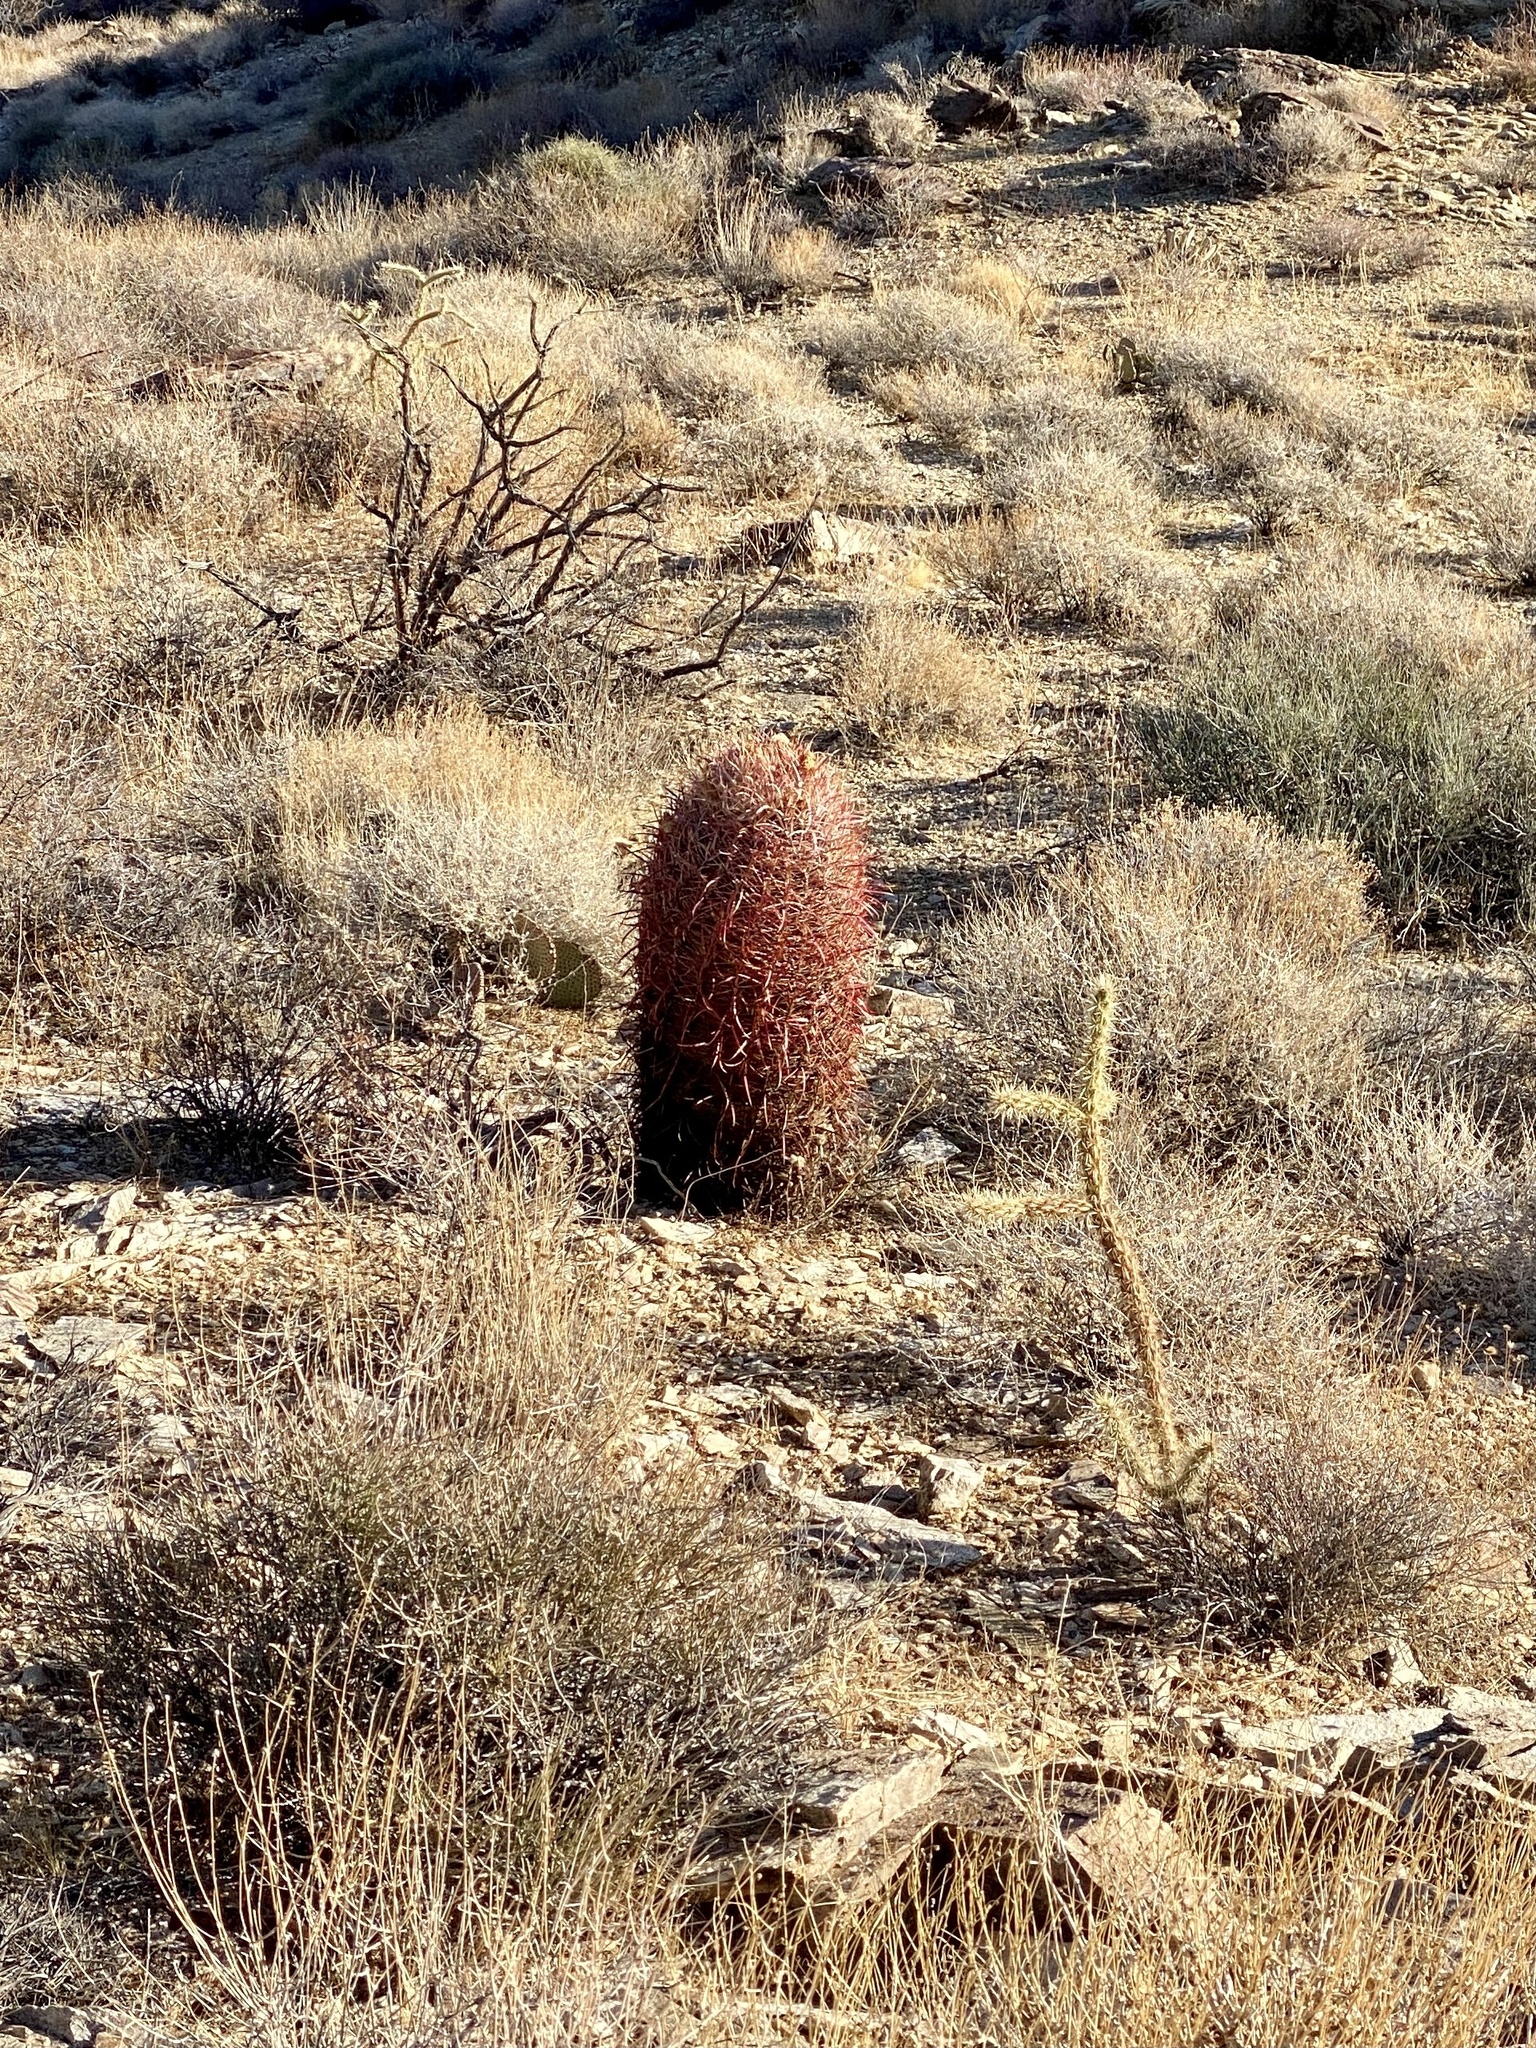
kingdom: Plantae
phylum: Tracheophyta
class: Magnoliopsida
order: Caryophyllales
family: Cactaceae
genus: Ferocactus
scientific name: Ferocactus cylindraceus
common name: California barrel cactus
